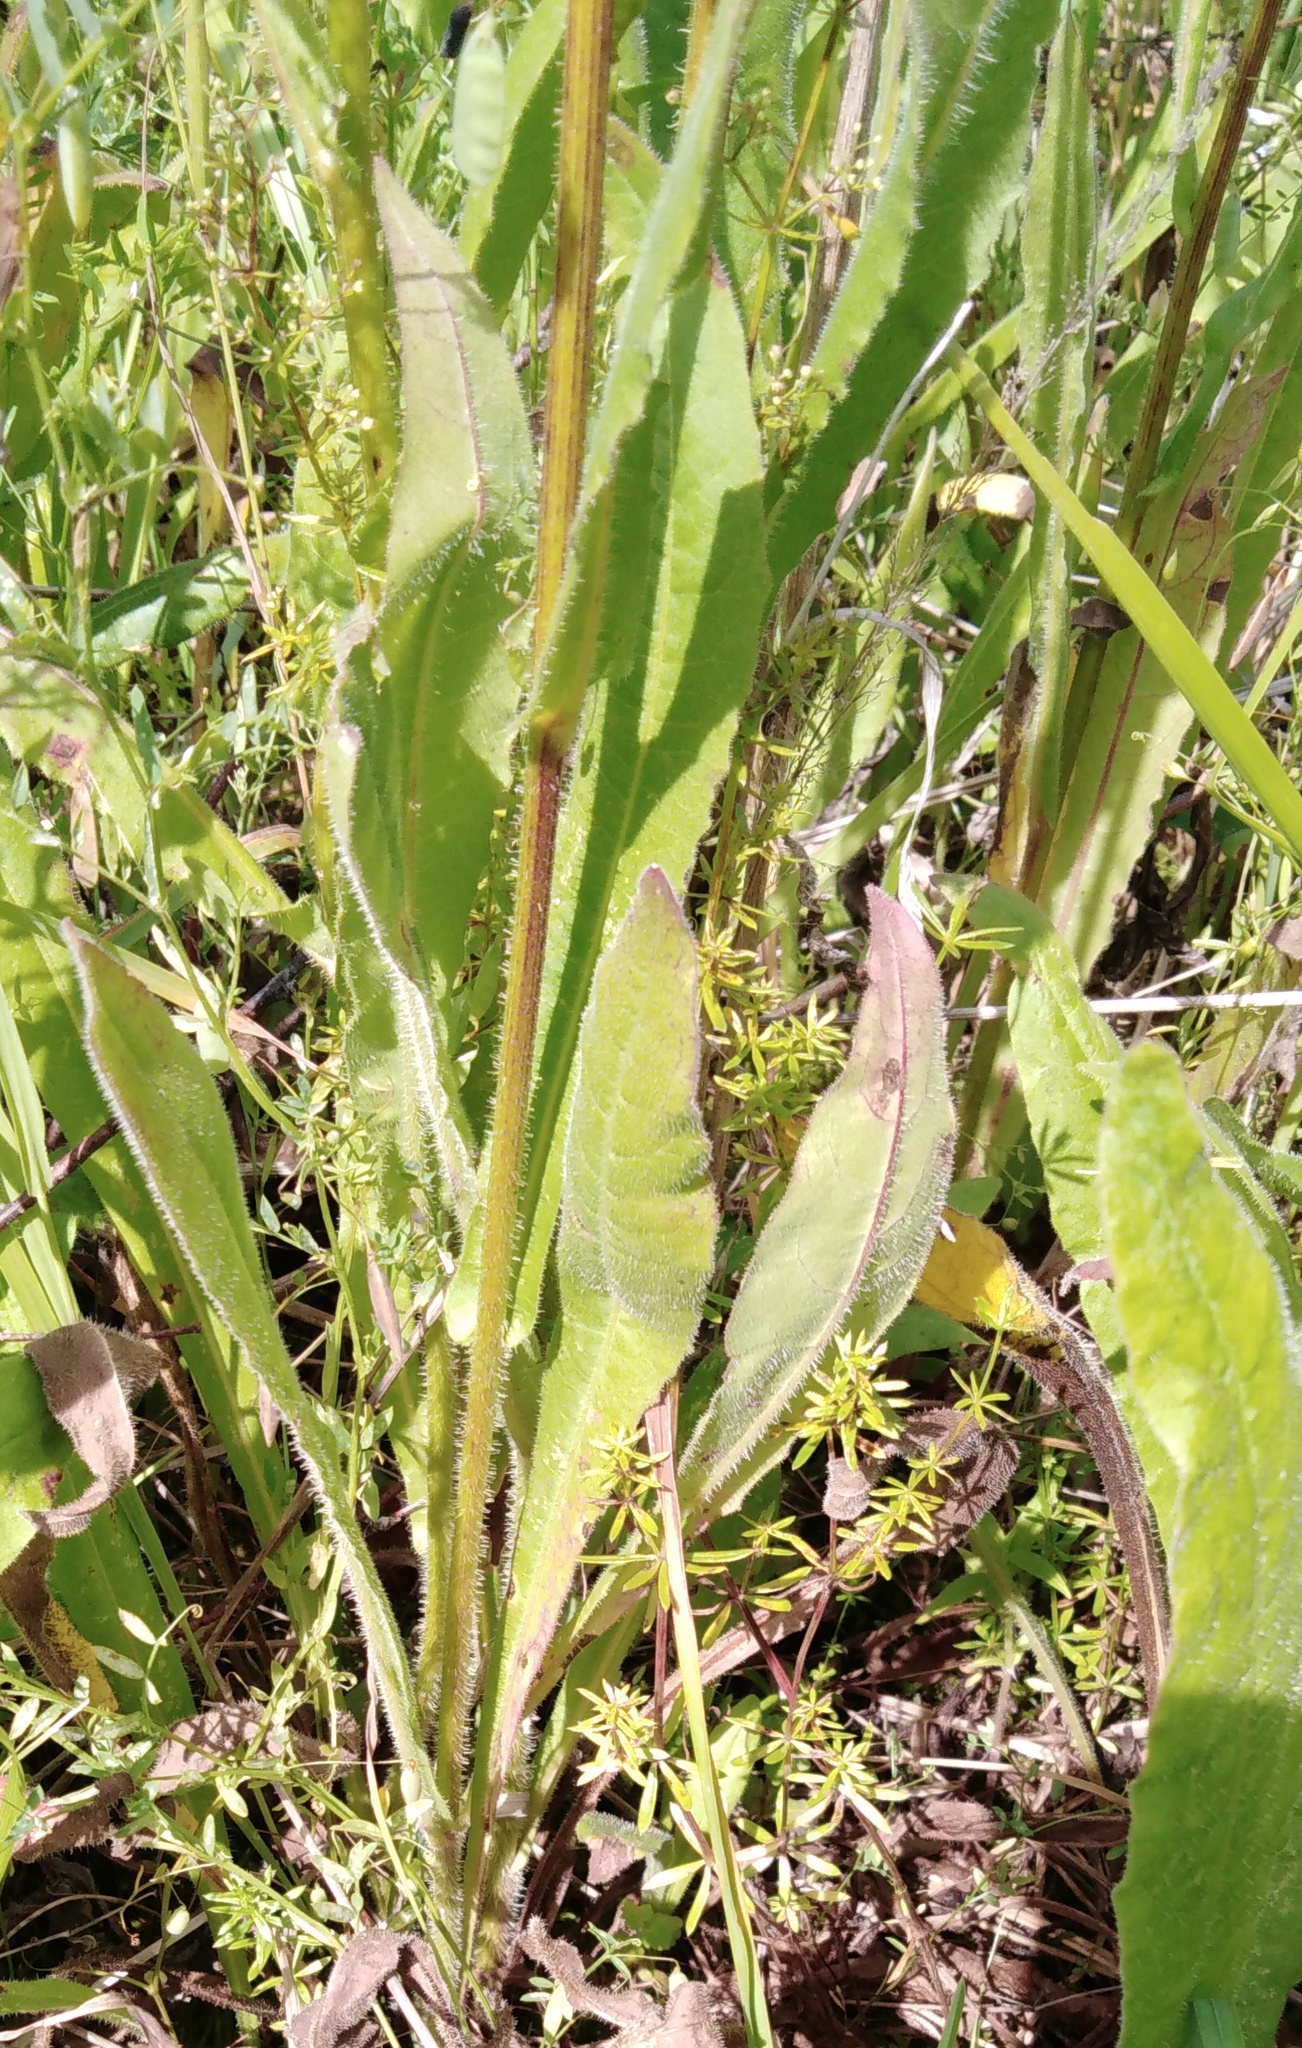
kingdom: Plantae
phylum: Tracheophyta
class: Magnoliopsida
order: Asterales
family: Asteraceae
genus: Picris
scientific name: Picris hieracioides
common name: Hawkweed oxtongue
